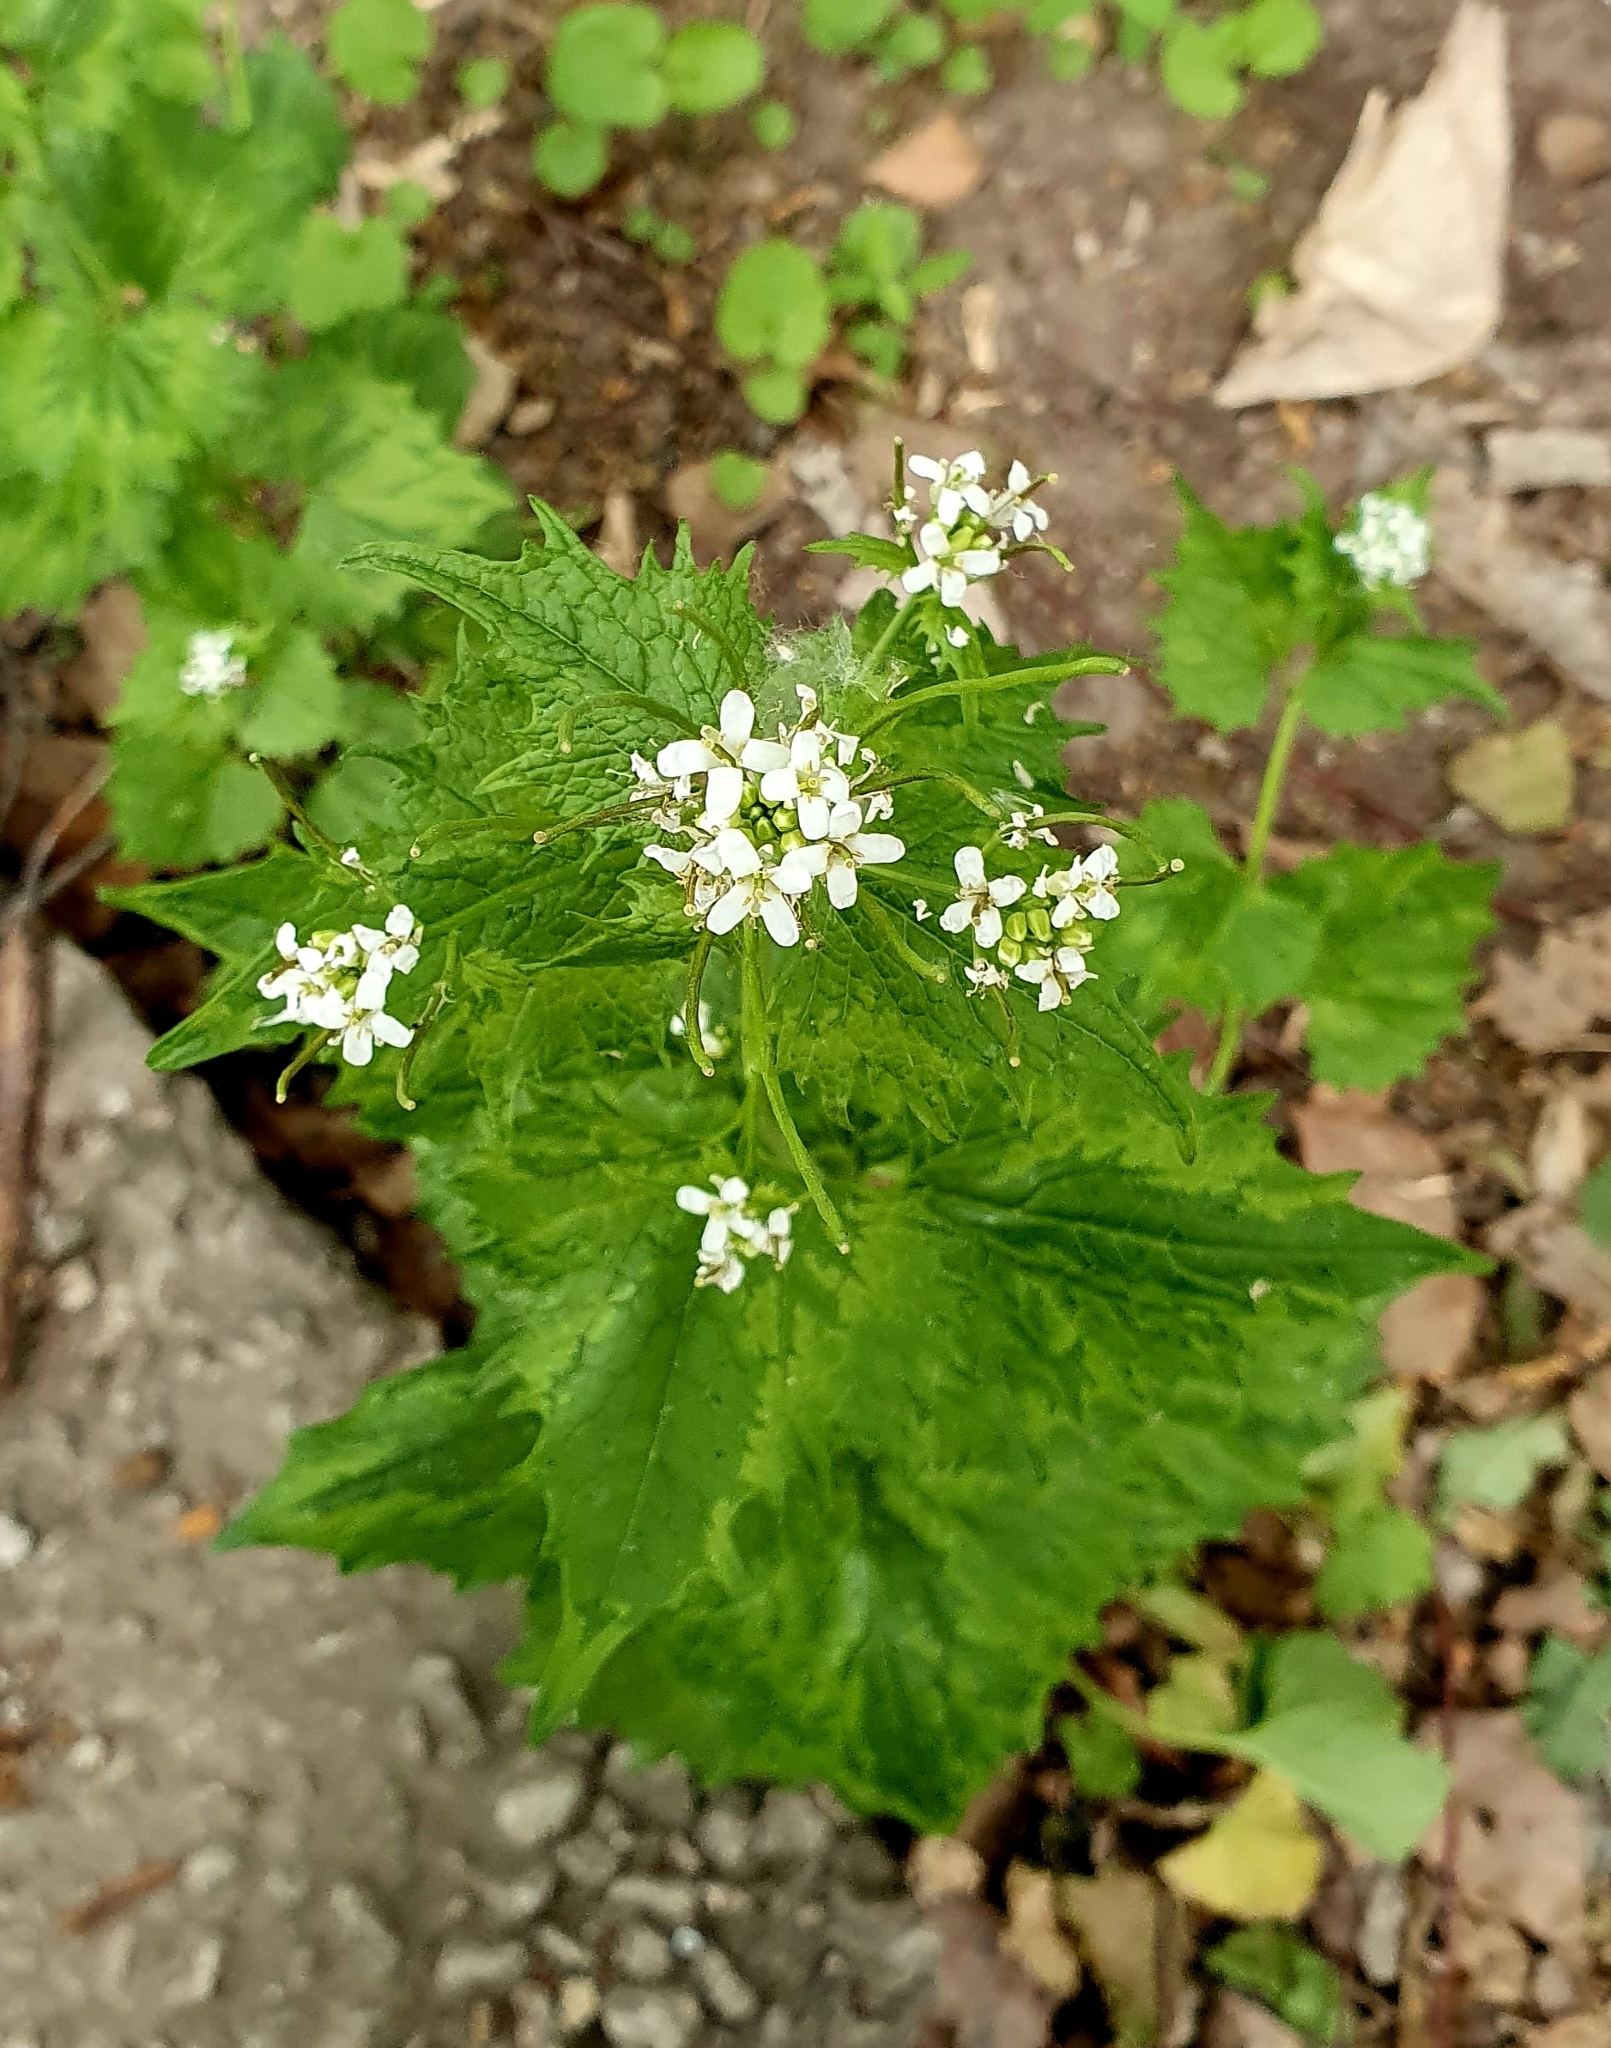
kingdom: Plantae
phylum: Tracheophyta
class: Magnoliopsida
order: Brassicales
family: Brassicaceae
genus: Alliaria
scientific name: Alliaria petiolata
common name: Garlic mustard
